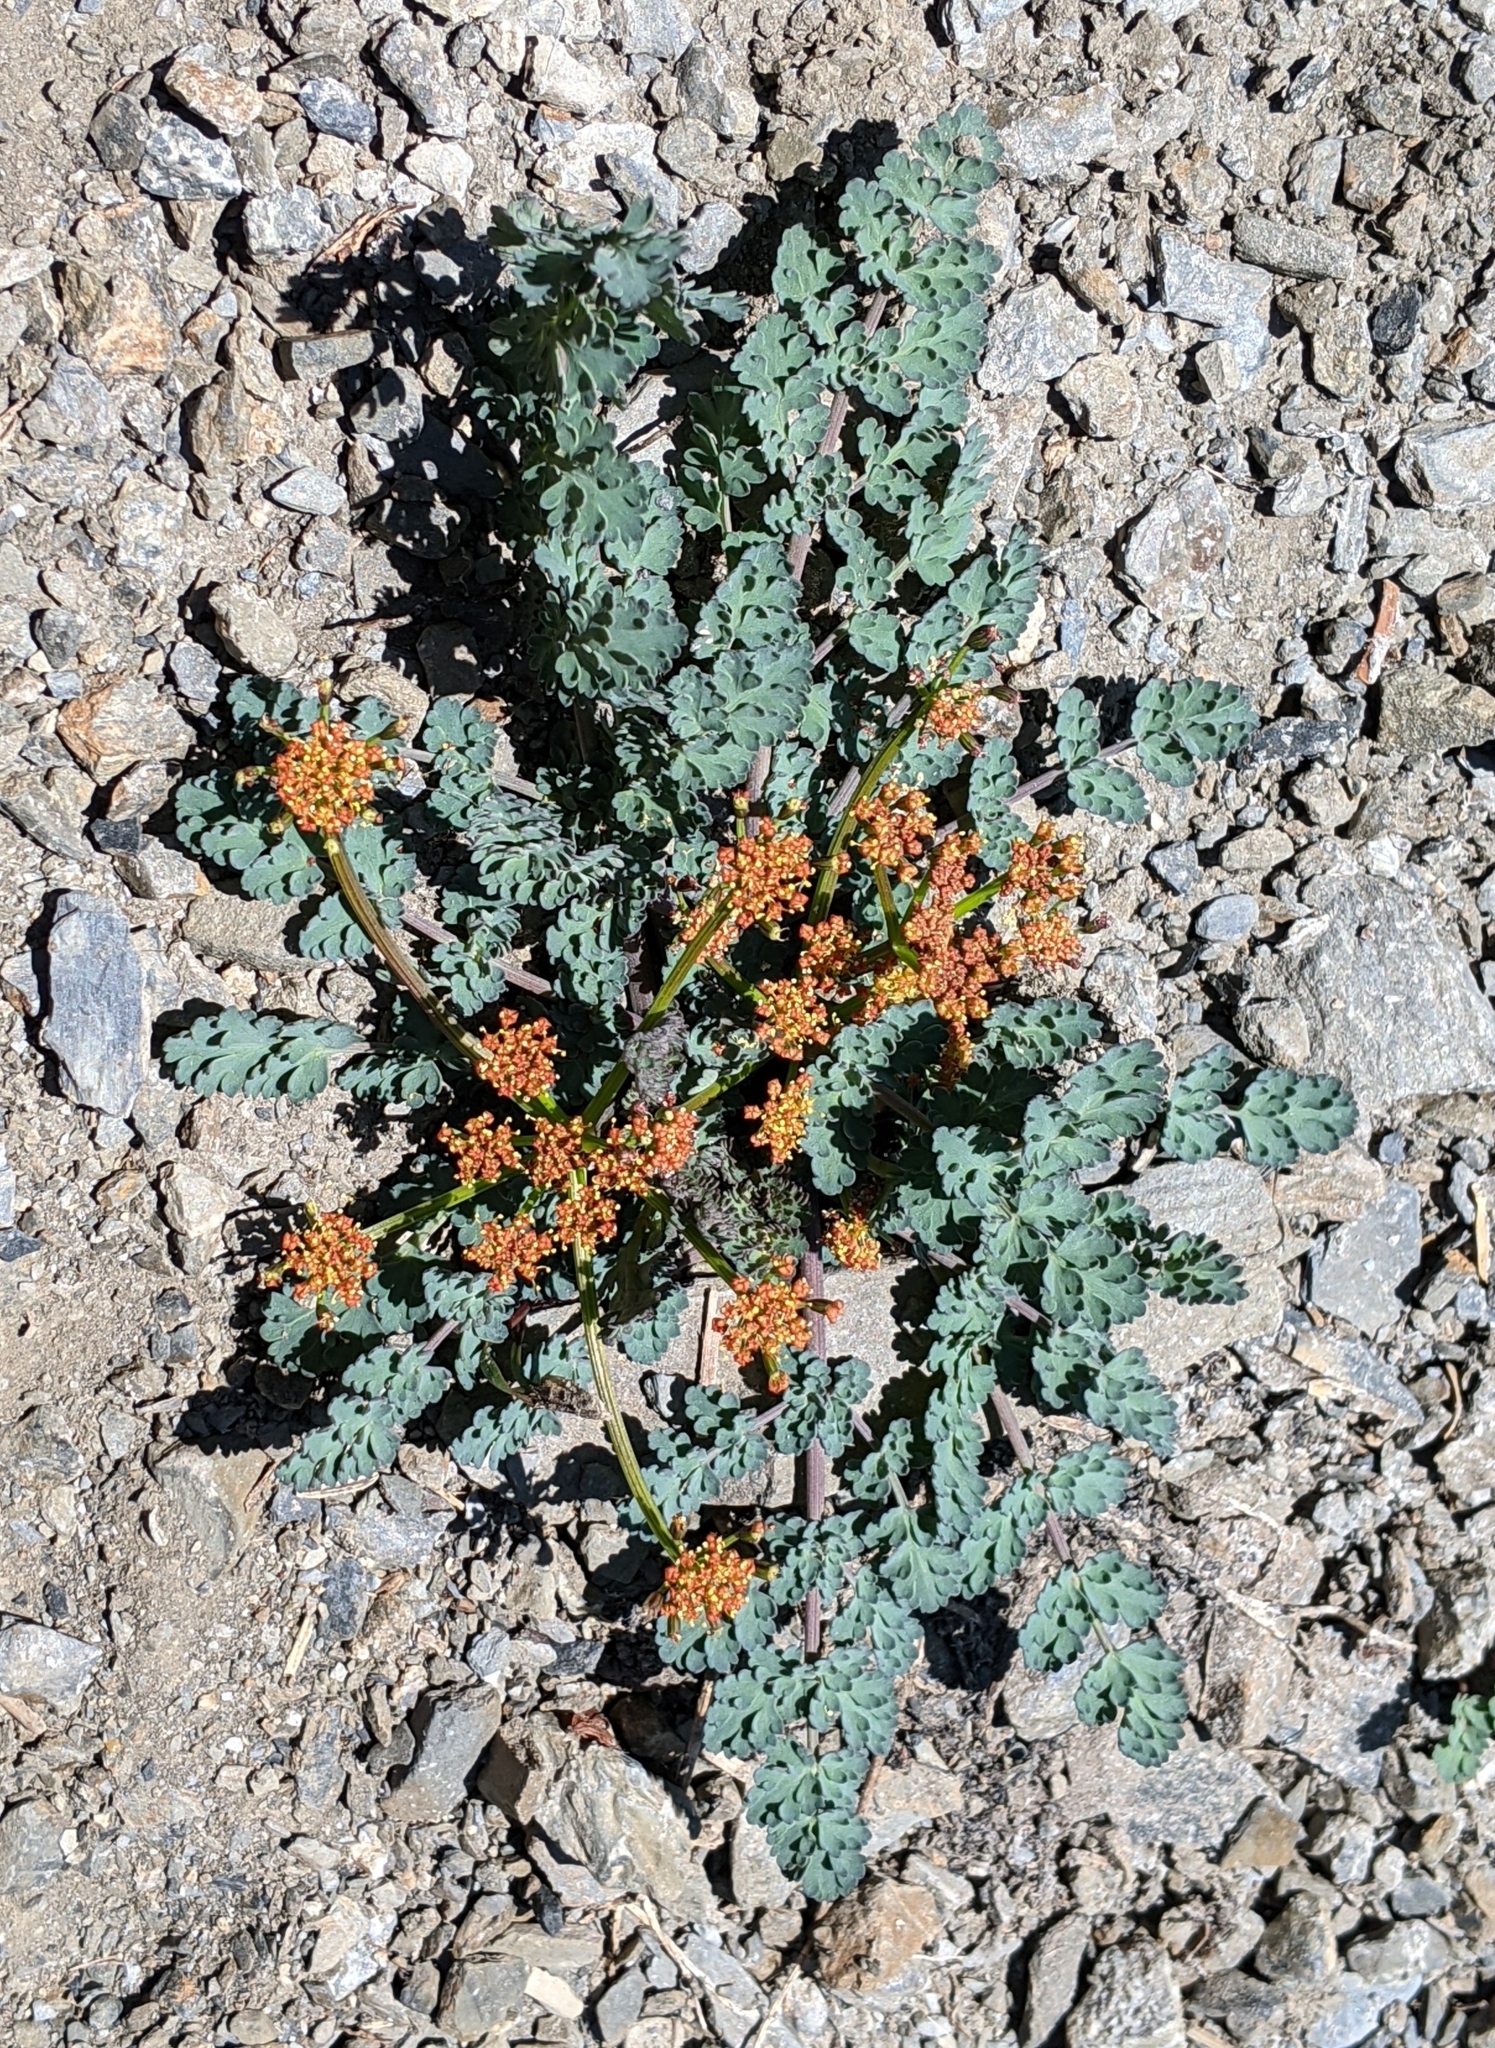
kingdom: Plantae
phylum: Tracheophyta
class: Magnoliopsida
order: Apiales
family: Apiaceae
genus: Lomatium
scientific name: Lomatium martindalei
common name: Cascade desert-parsley
